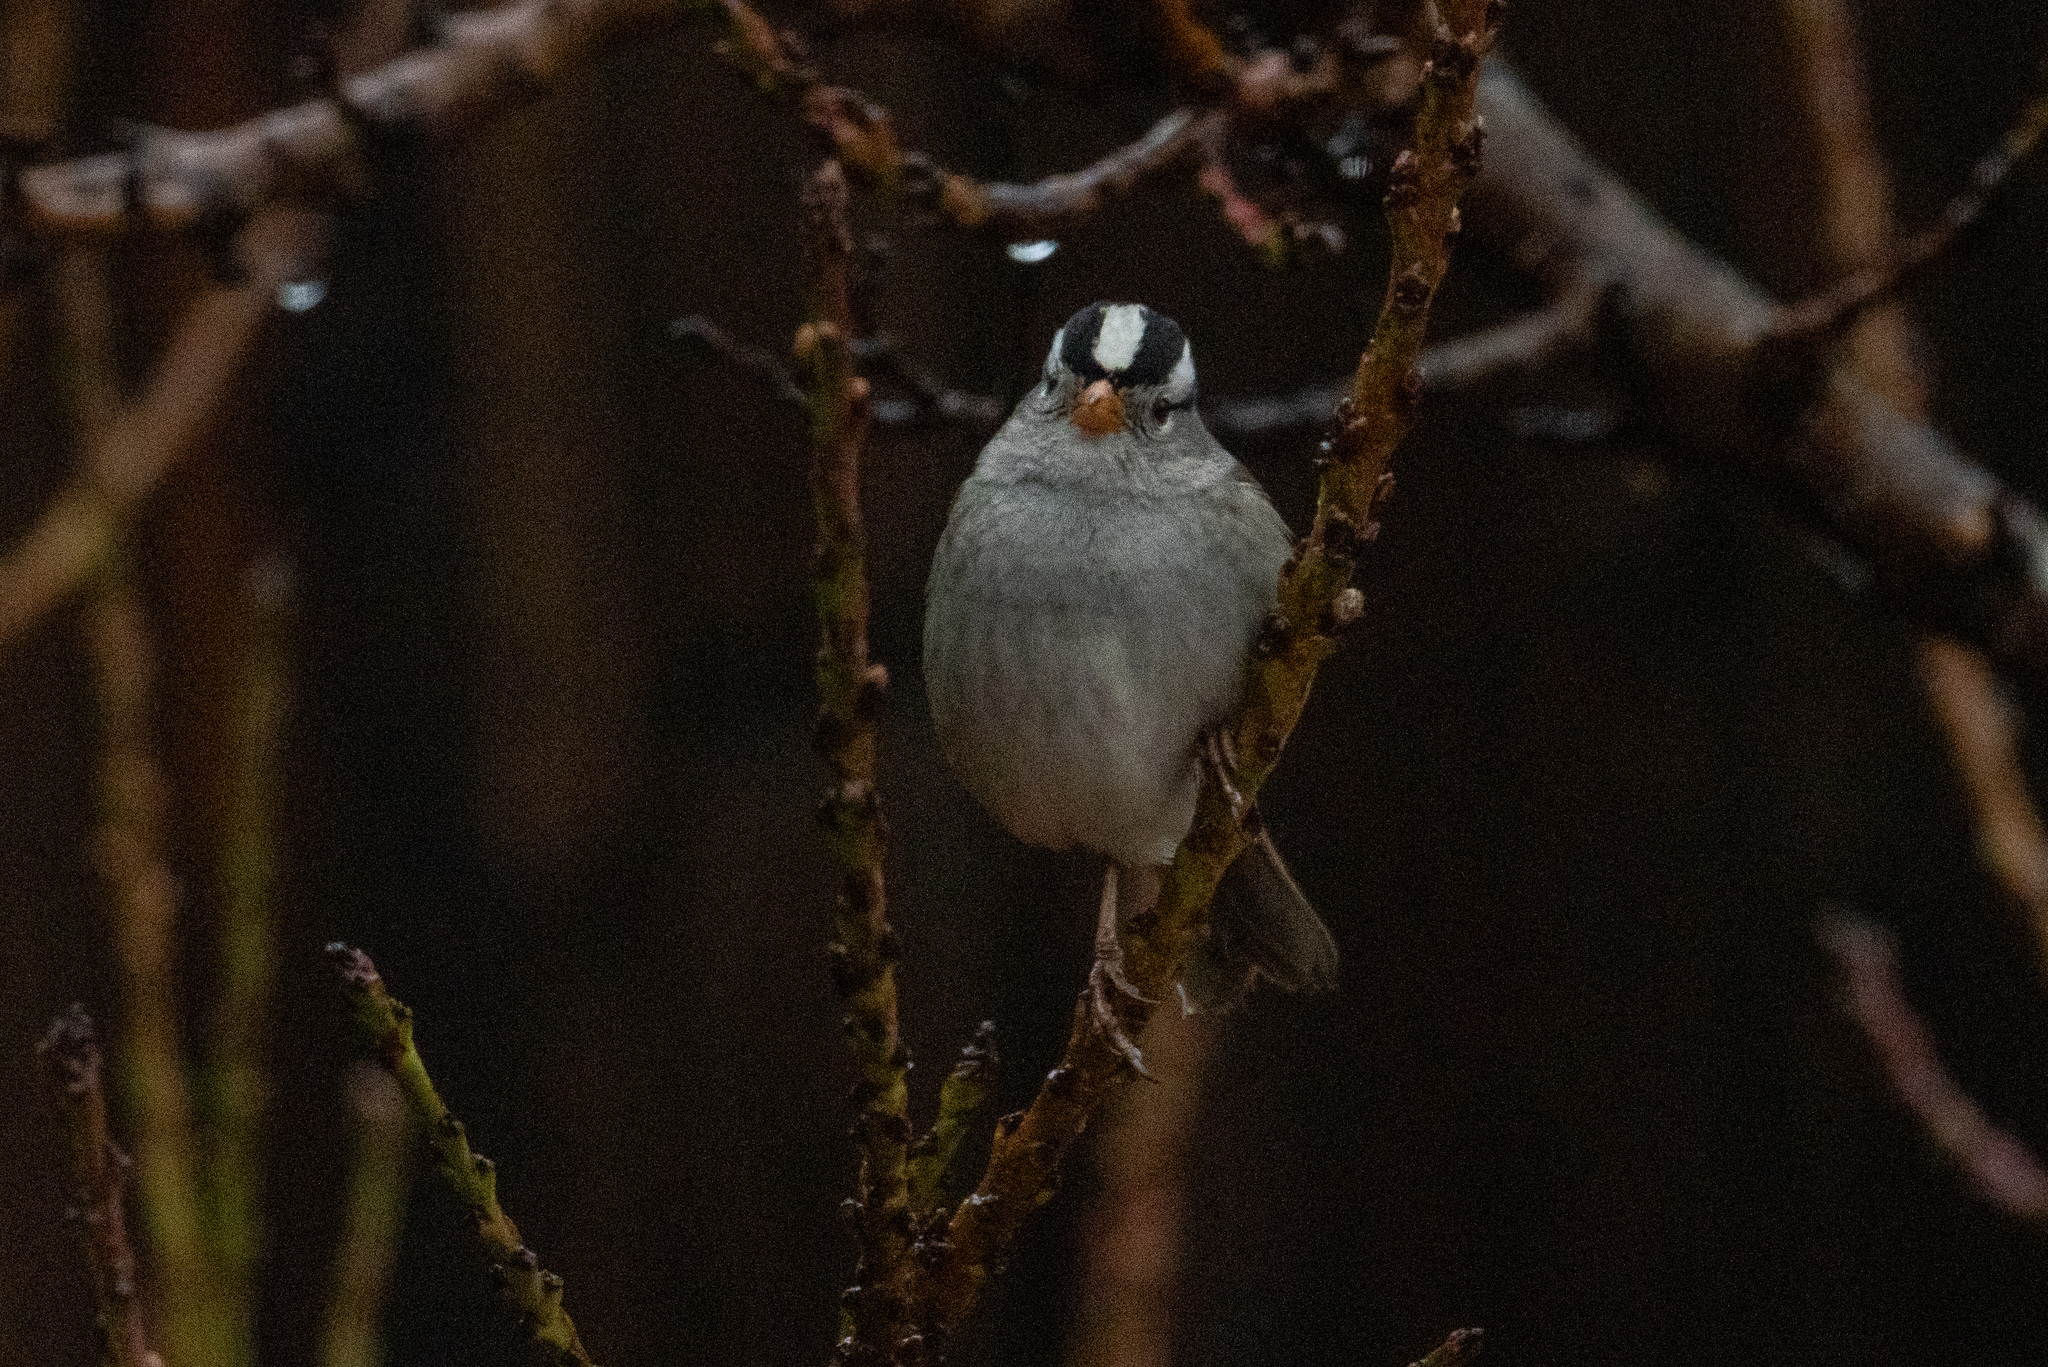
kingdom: Animalia
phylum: Chordata
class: Aves
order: Passeriformes
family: Passerellidae
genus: Zonotrichia
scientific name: Zonotrichia leucophrys
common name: White-crowned sparrow
